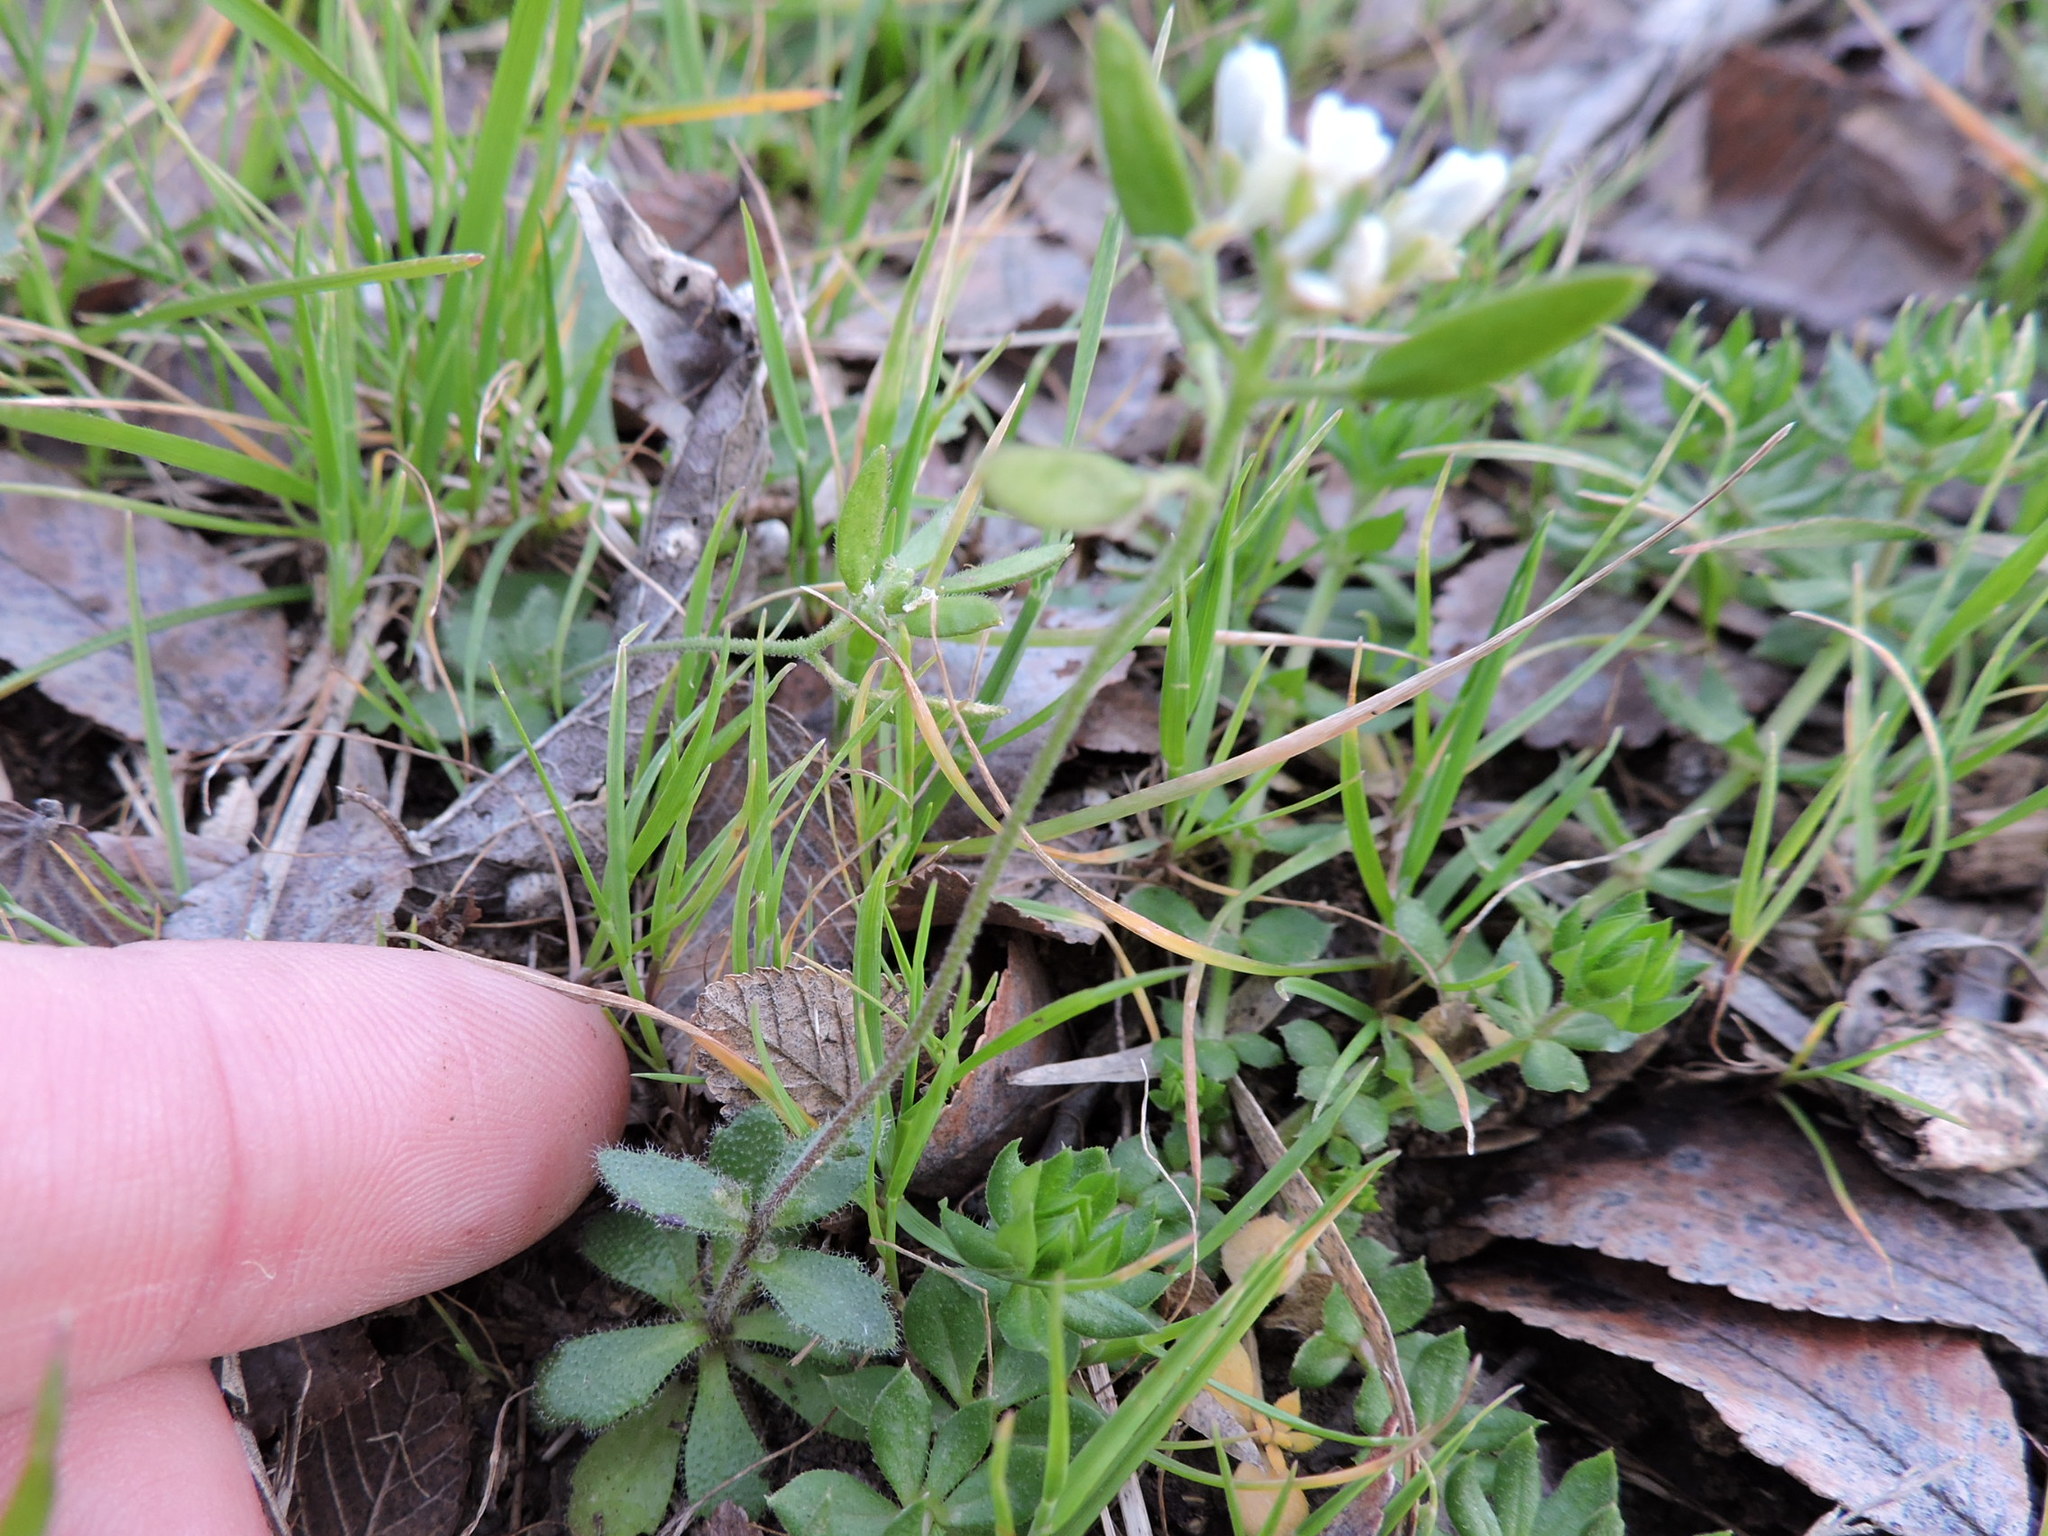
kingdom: Plantae
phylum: Tracheophyta
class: Magnoliopsida
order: Brassicales
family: Brassicaceae
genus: Tomostima
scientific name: Tomostima cuneifolia
